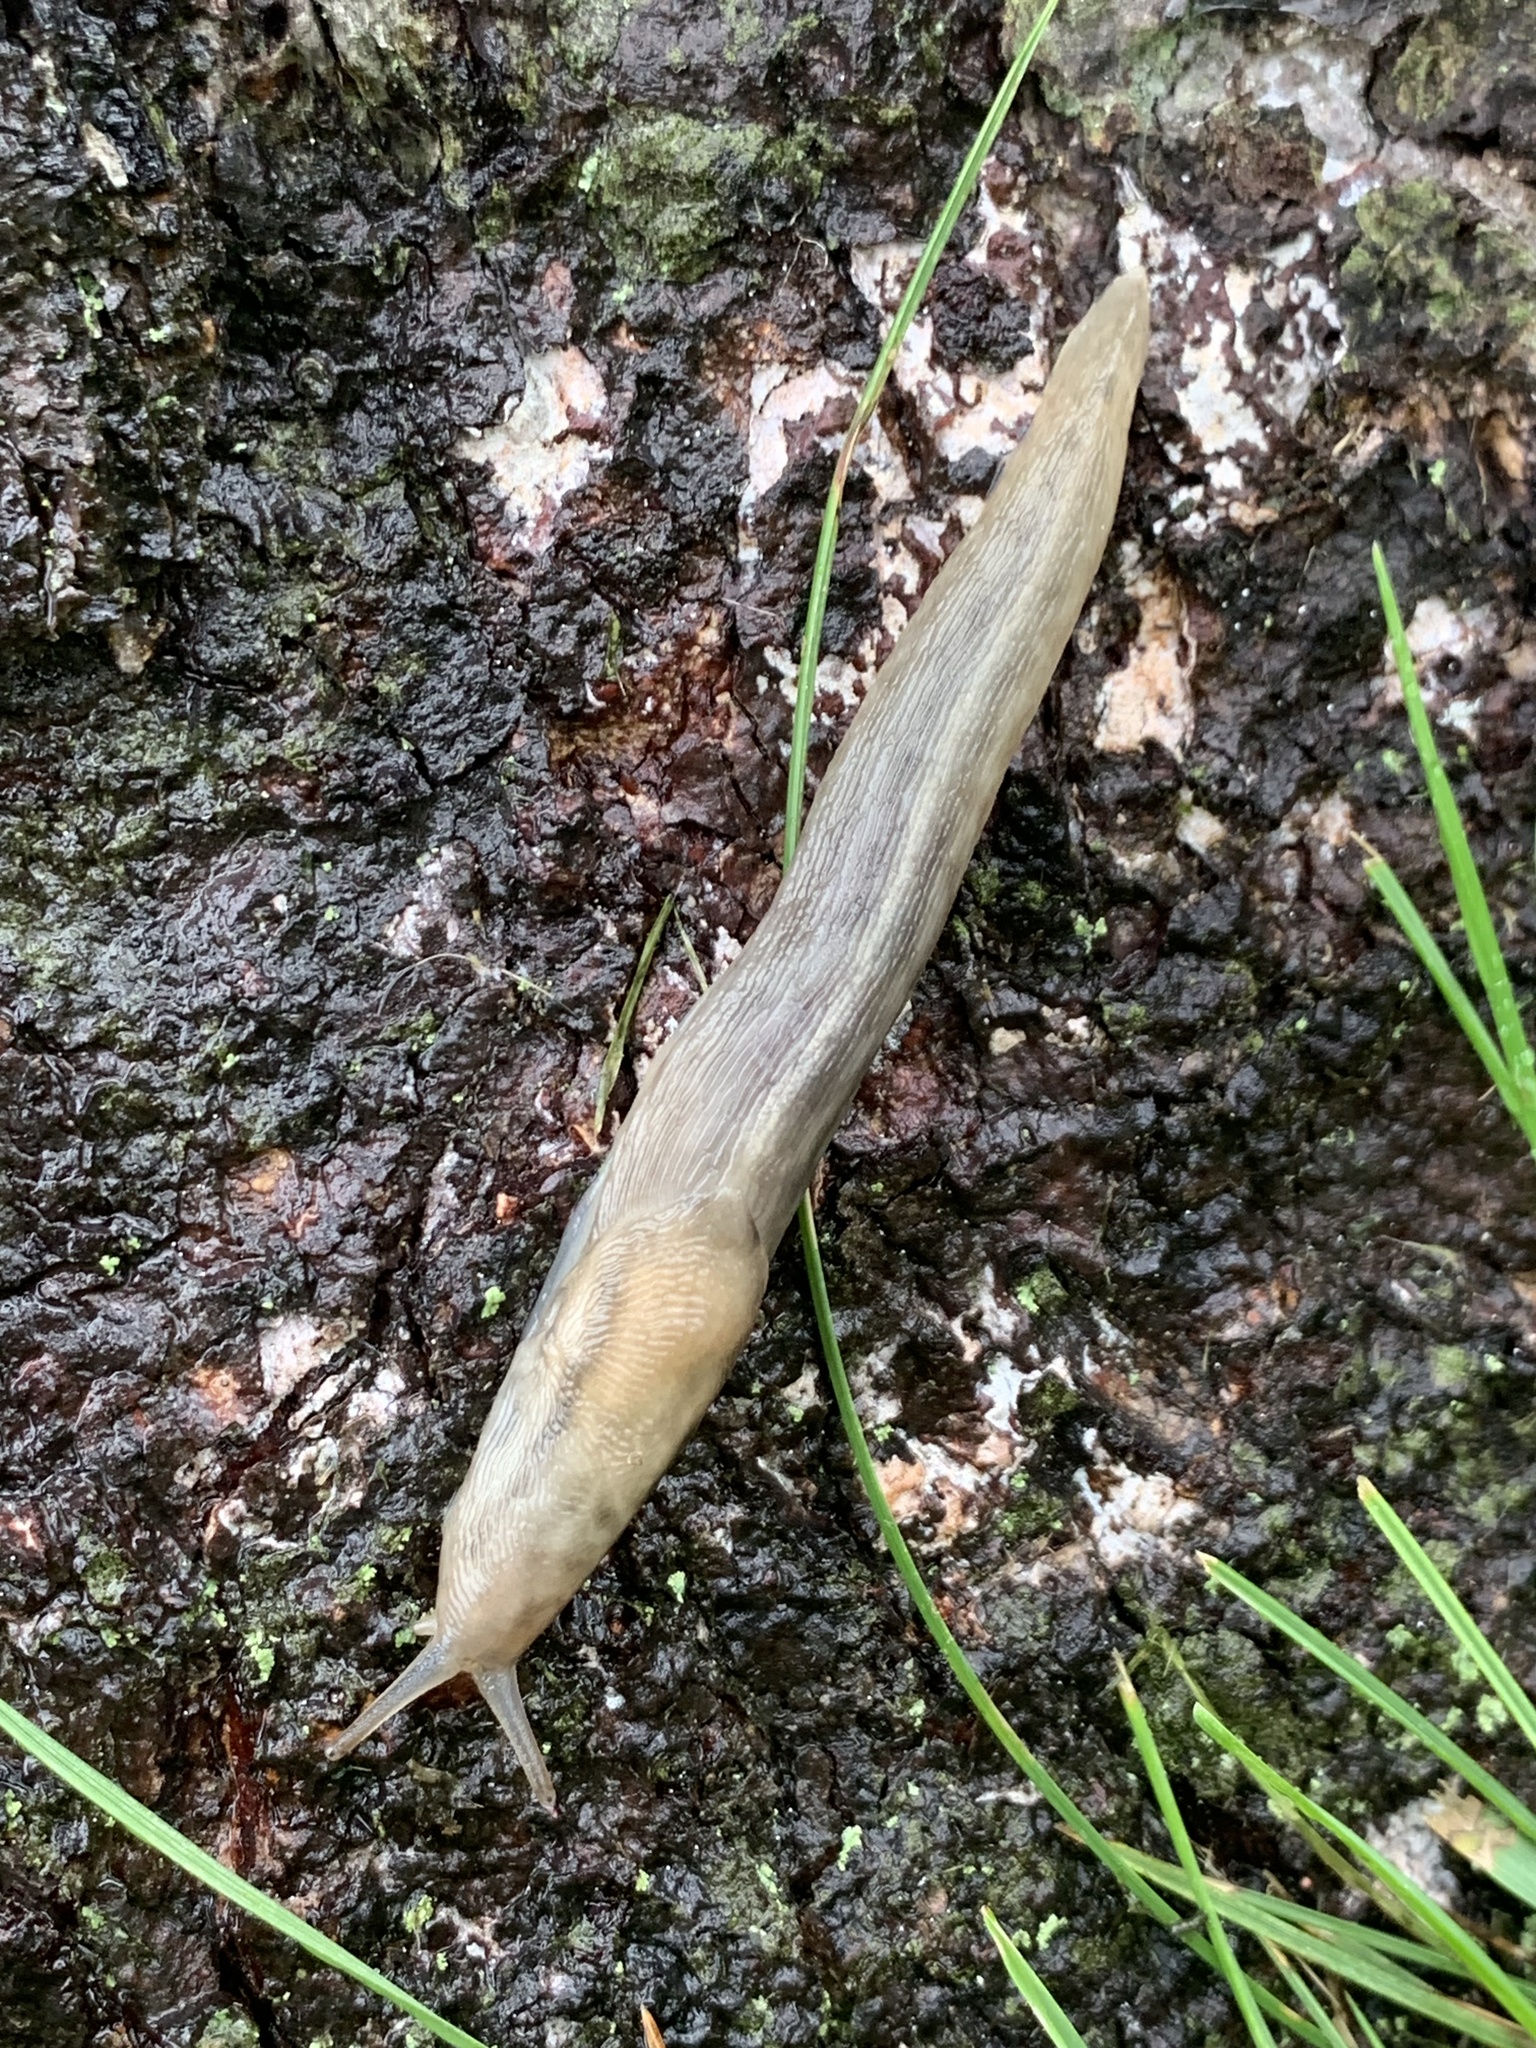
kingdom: Animalia
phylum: Mollusca
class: Gastropoda
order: Stylommatophora
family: Limacidae
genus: Lehmannia
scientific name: Lehmannia marginata
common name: Tree slug
